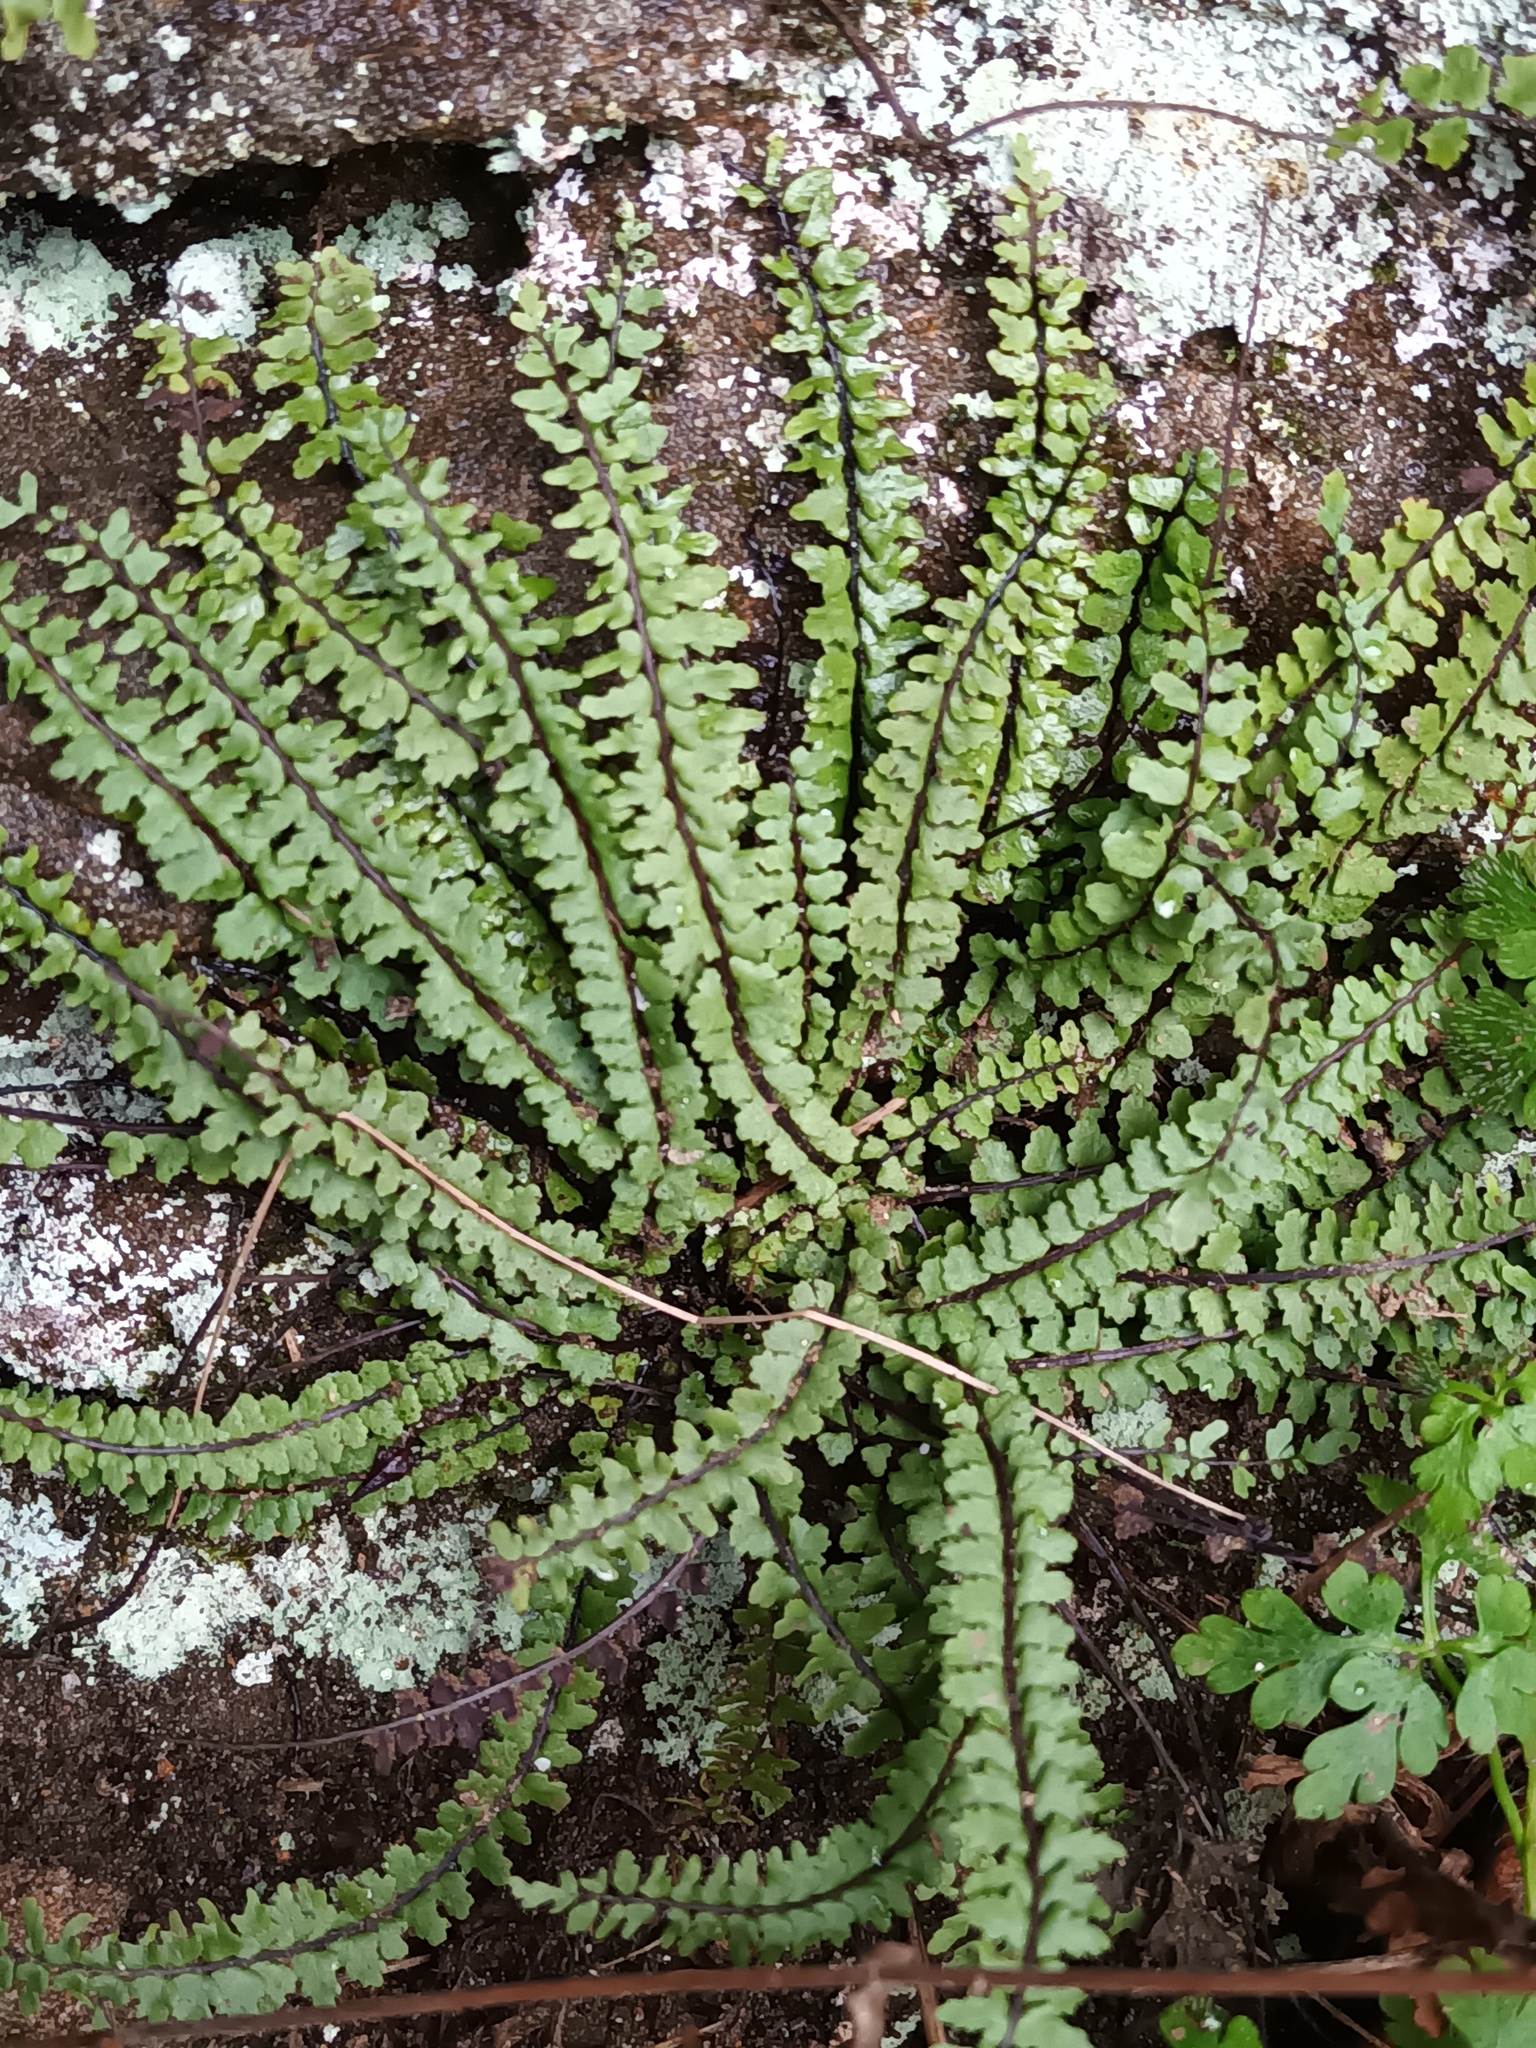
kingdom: Plantae
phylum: Tracheophyta
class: Polypodiopsida
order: Polypodiales
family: Aspleniaceae
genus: Asplenium
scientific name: Asplenium trichomanes
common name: Maidenhair spleenwort
